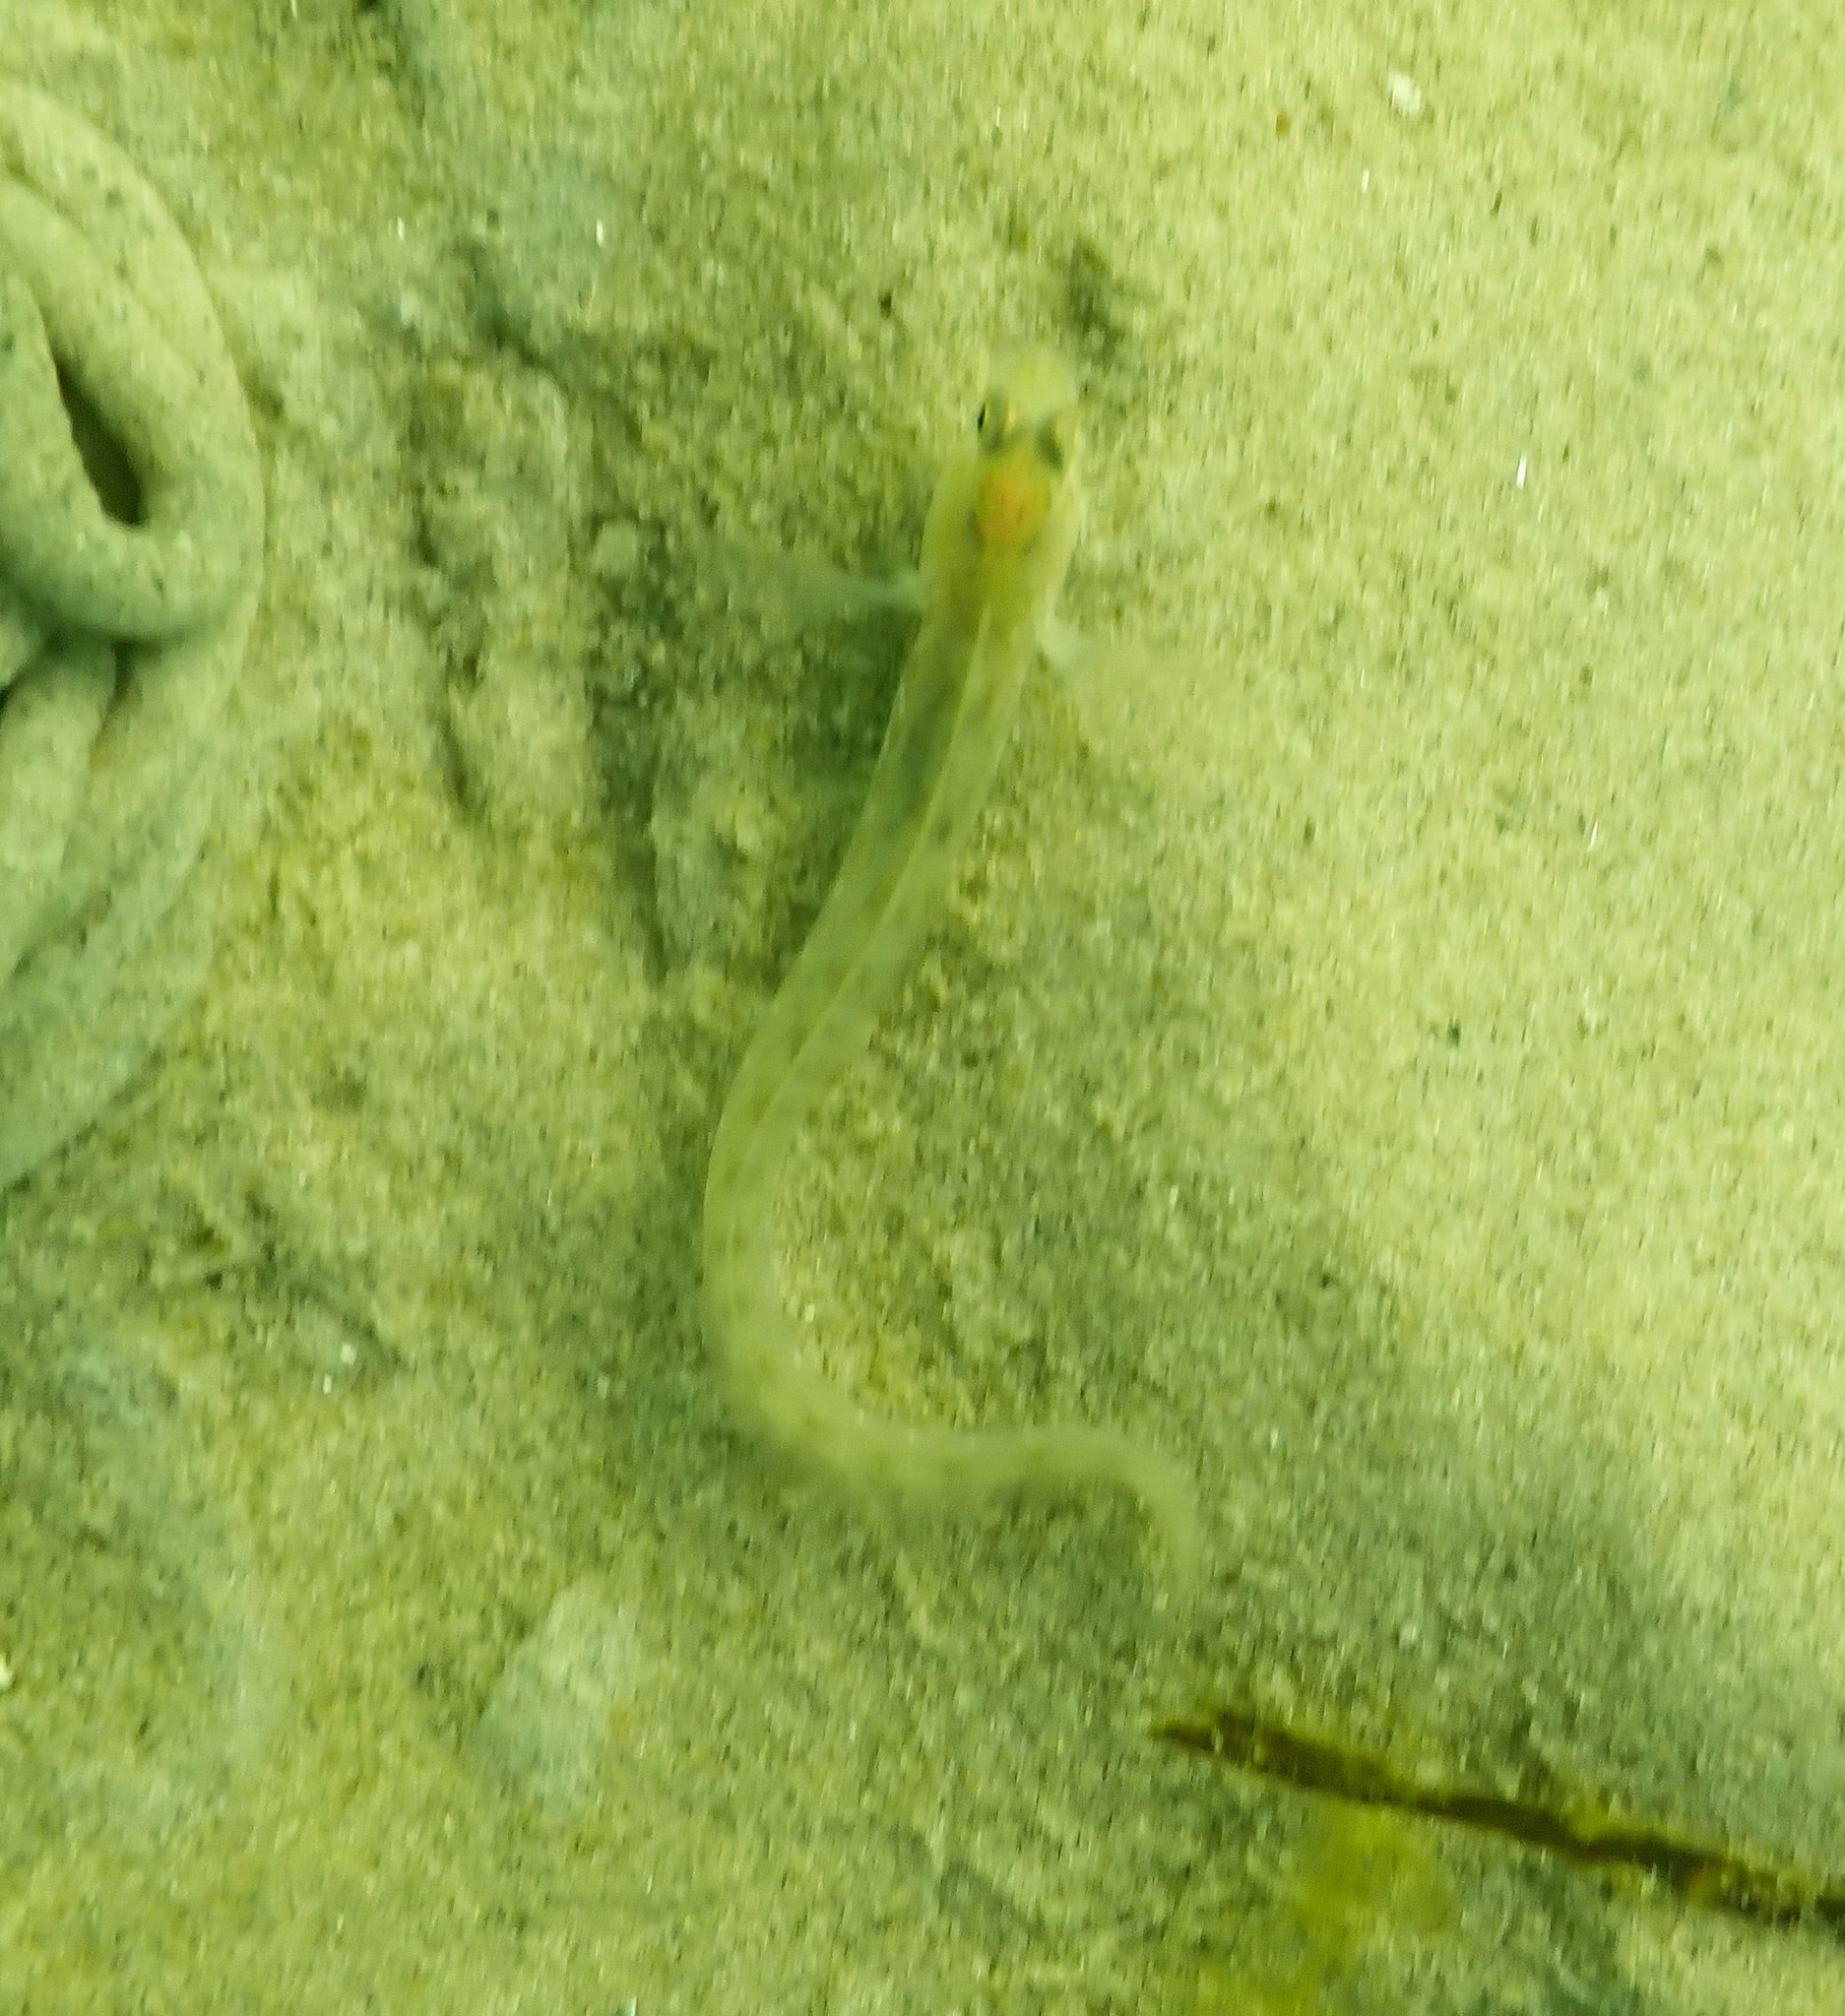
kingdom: Animalia
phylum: Chordata
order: Perciformes
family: Zoarcidae
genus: Zoarces
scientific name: Zoarces viviparus
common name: Viviparous blenny
